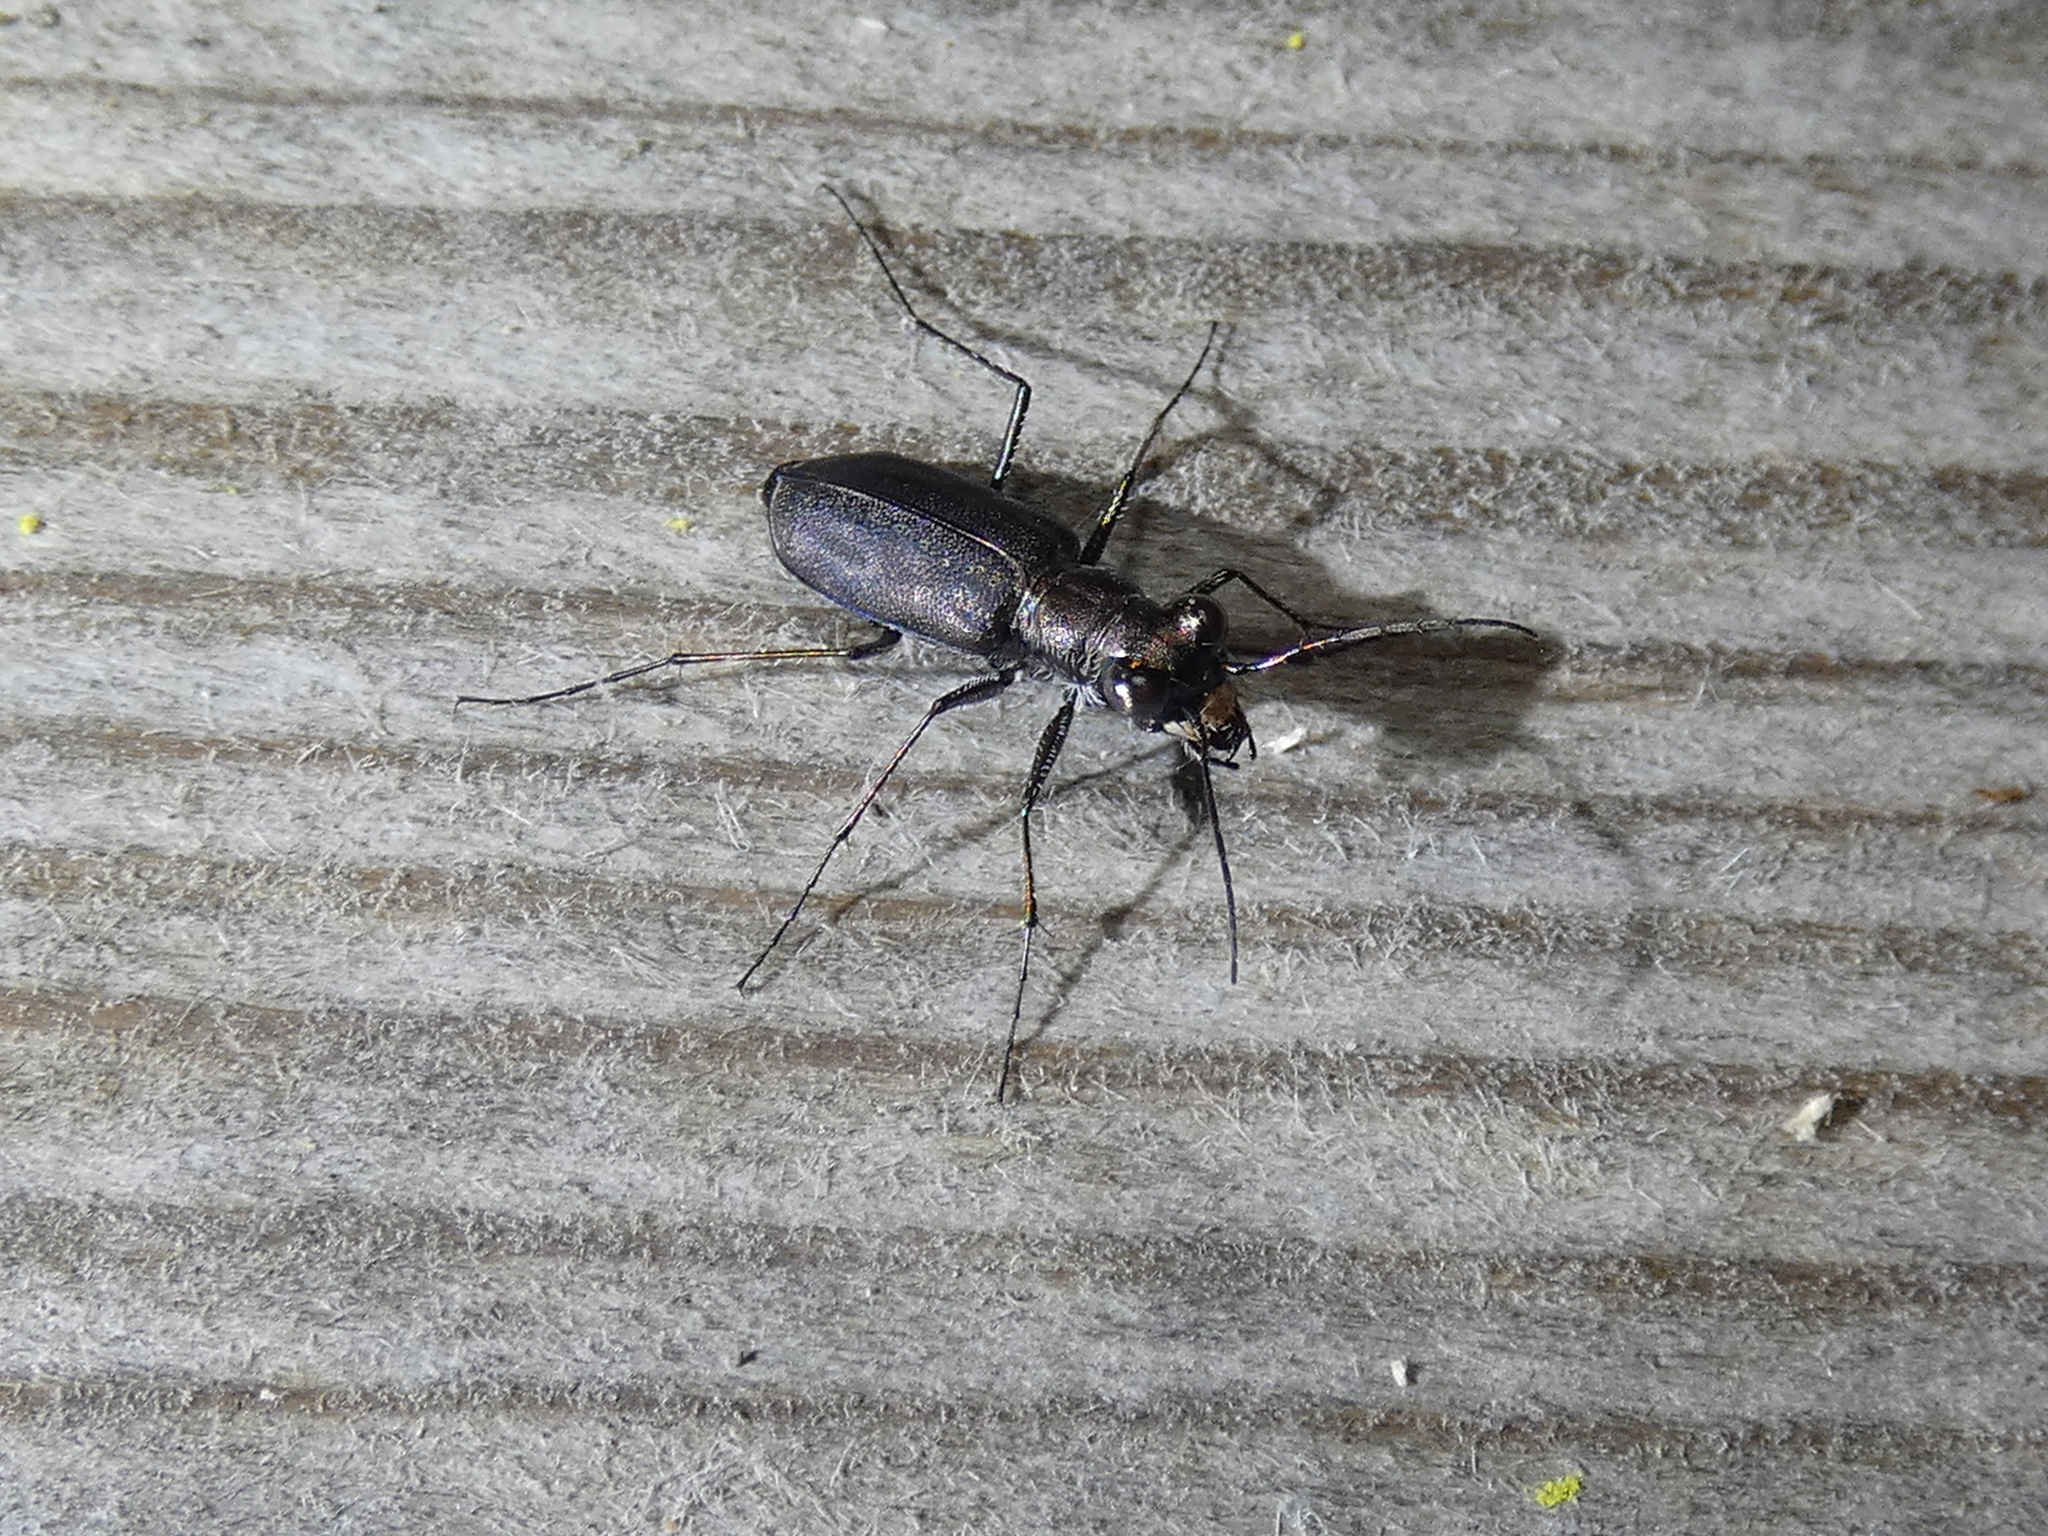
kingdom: Animalia
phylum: Arthropoda
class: Insecta
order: Coleoptera
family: Carabidae
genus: Cicindela
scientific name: Cicindela punctulata
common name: Punctured tiger beetle
